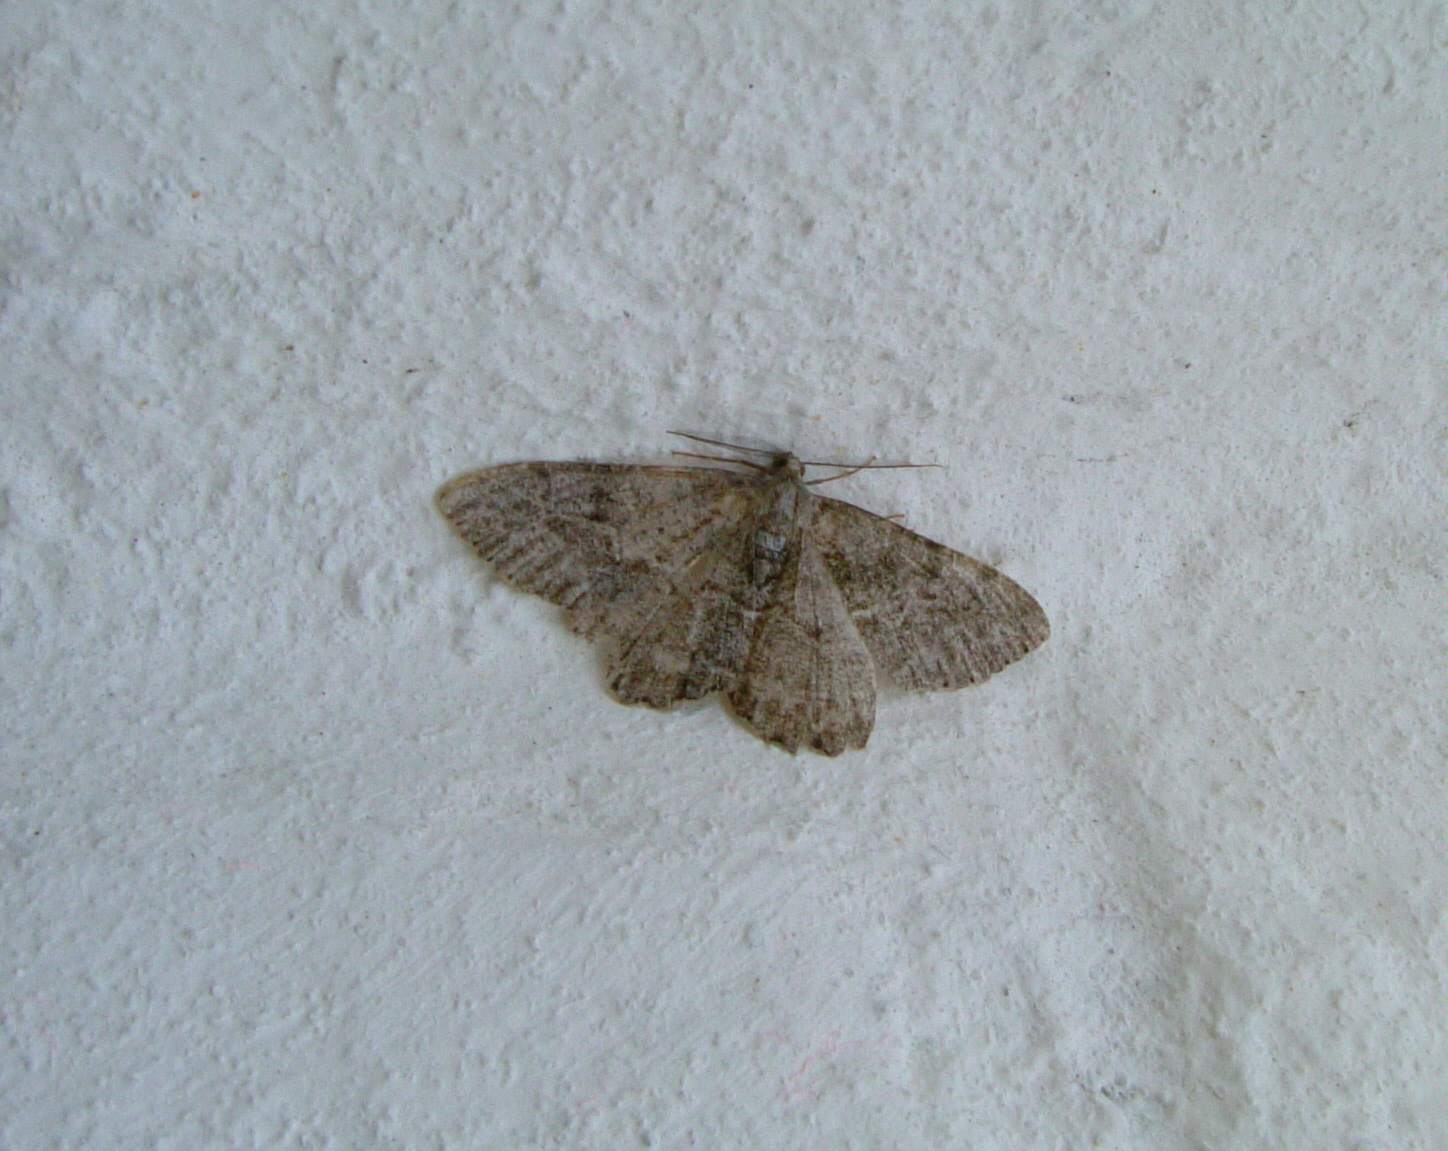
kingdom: Animalia
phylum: Arthropoda
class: Insecta
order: Lepidoptera
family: Geometridae
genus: Alcis
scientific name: Alcis repandata
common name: Mottled beauty
